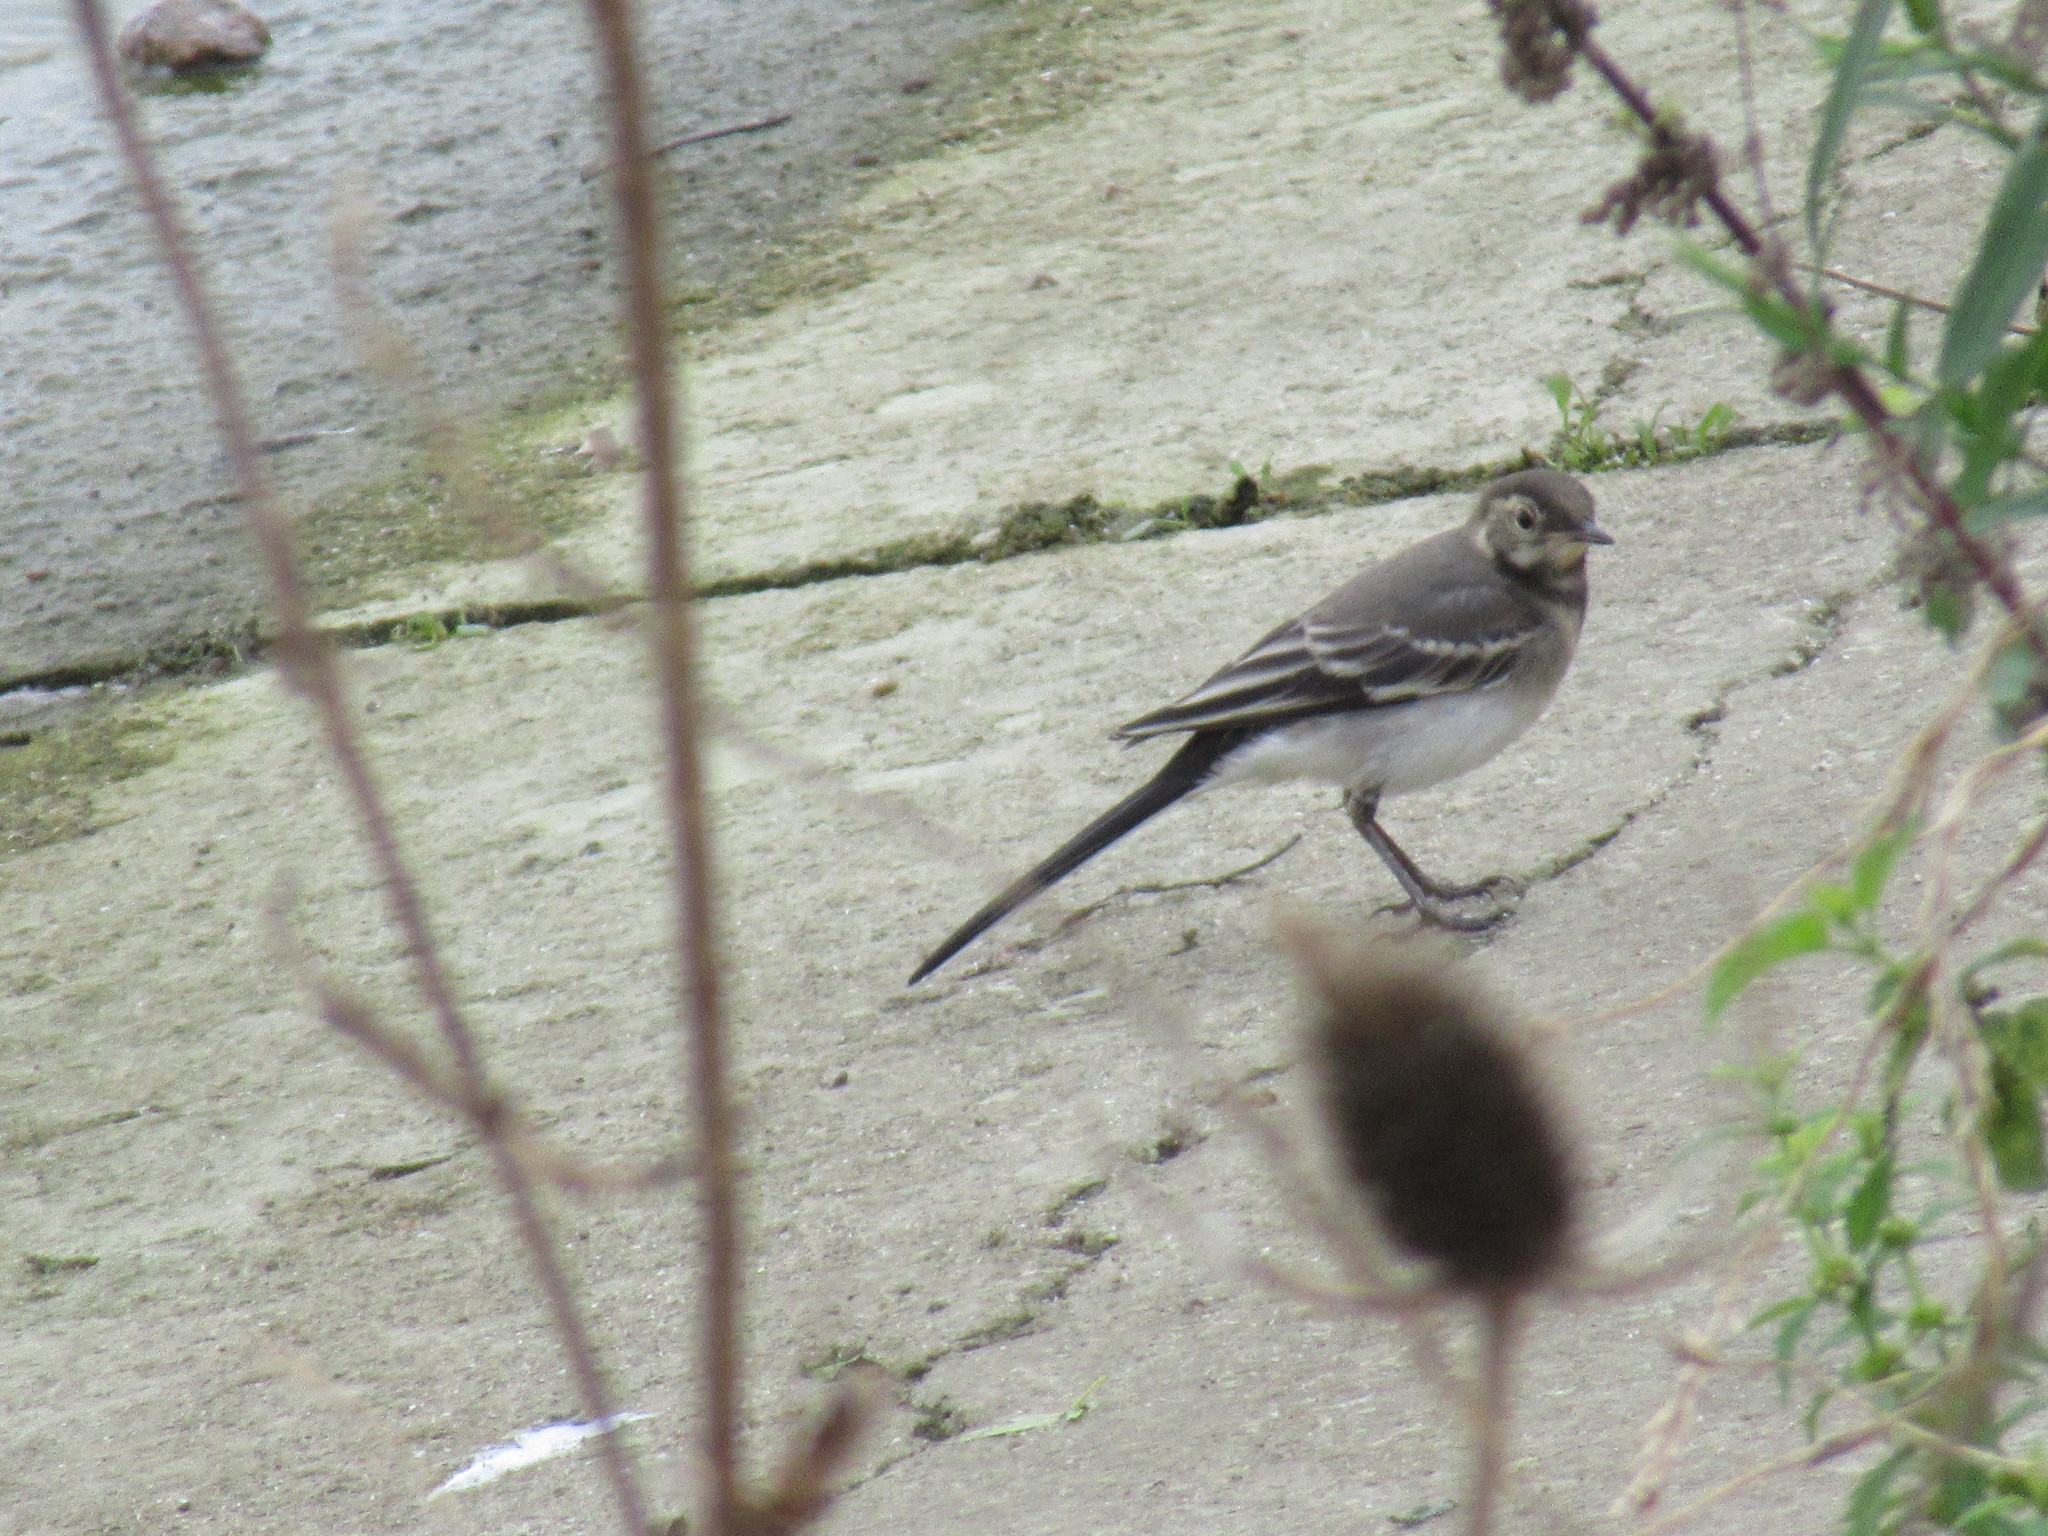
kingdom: Animalia
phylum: Chordata
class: Aves
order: Passeriformes
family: Motacillidae
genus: Motacilla
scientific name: Motacilla alba
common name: White wagtail
